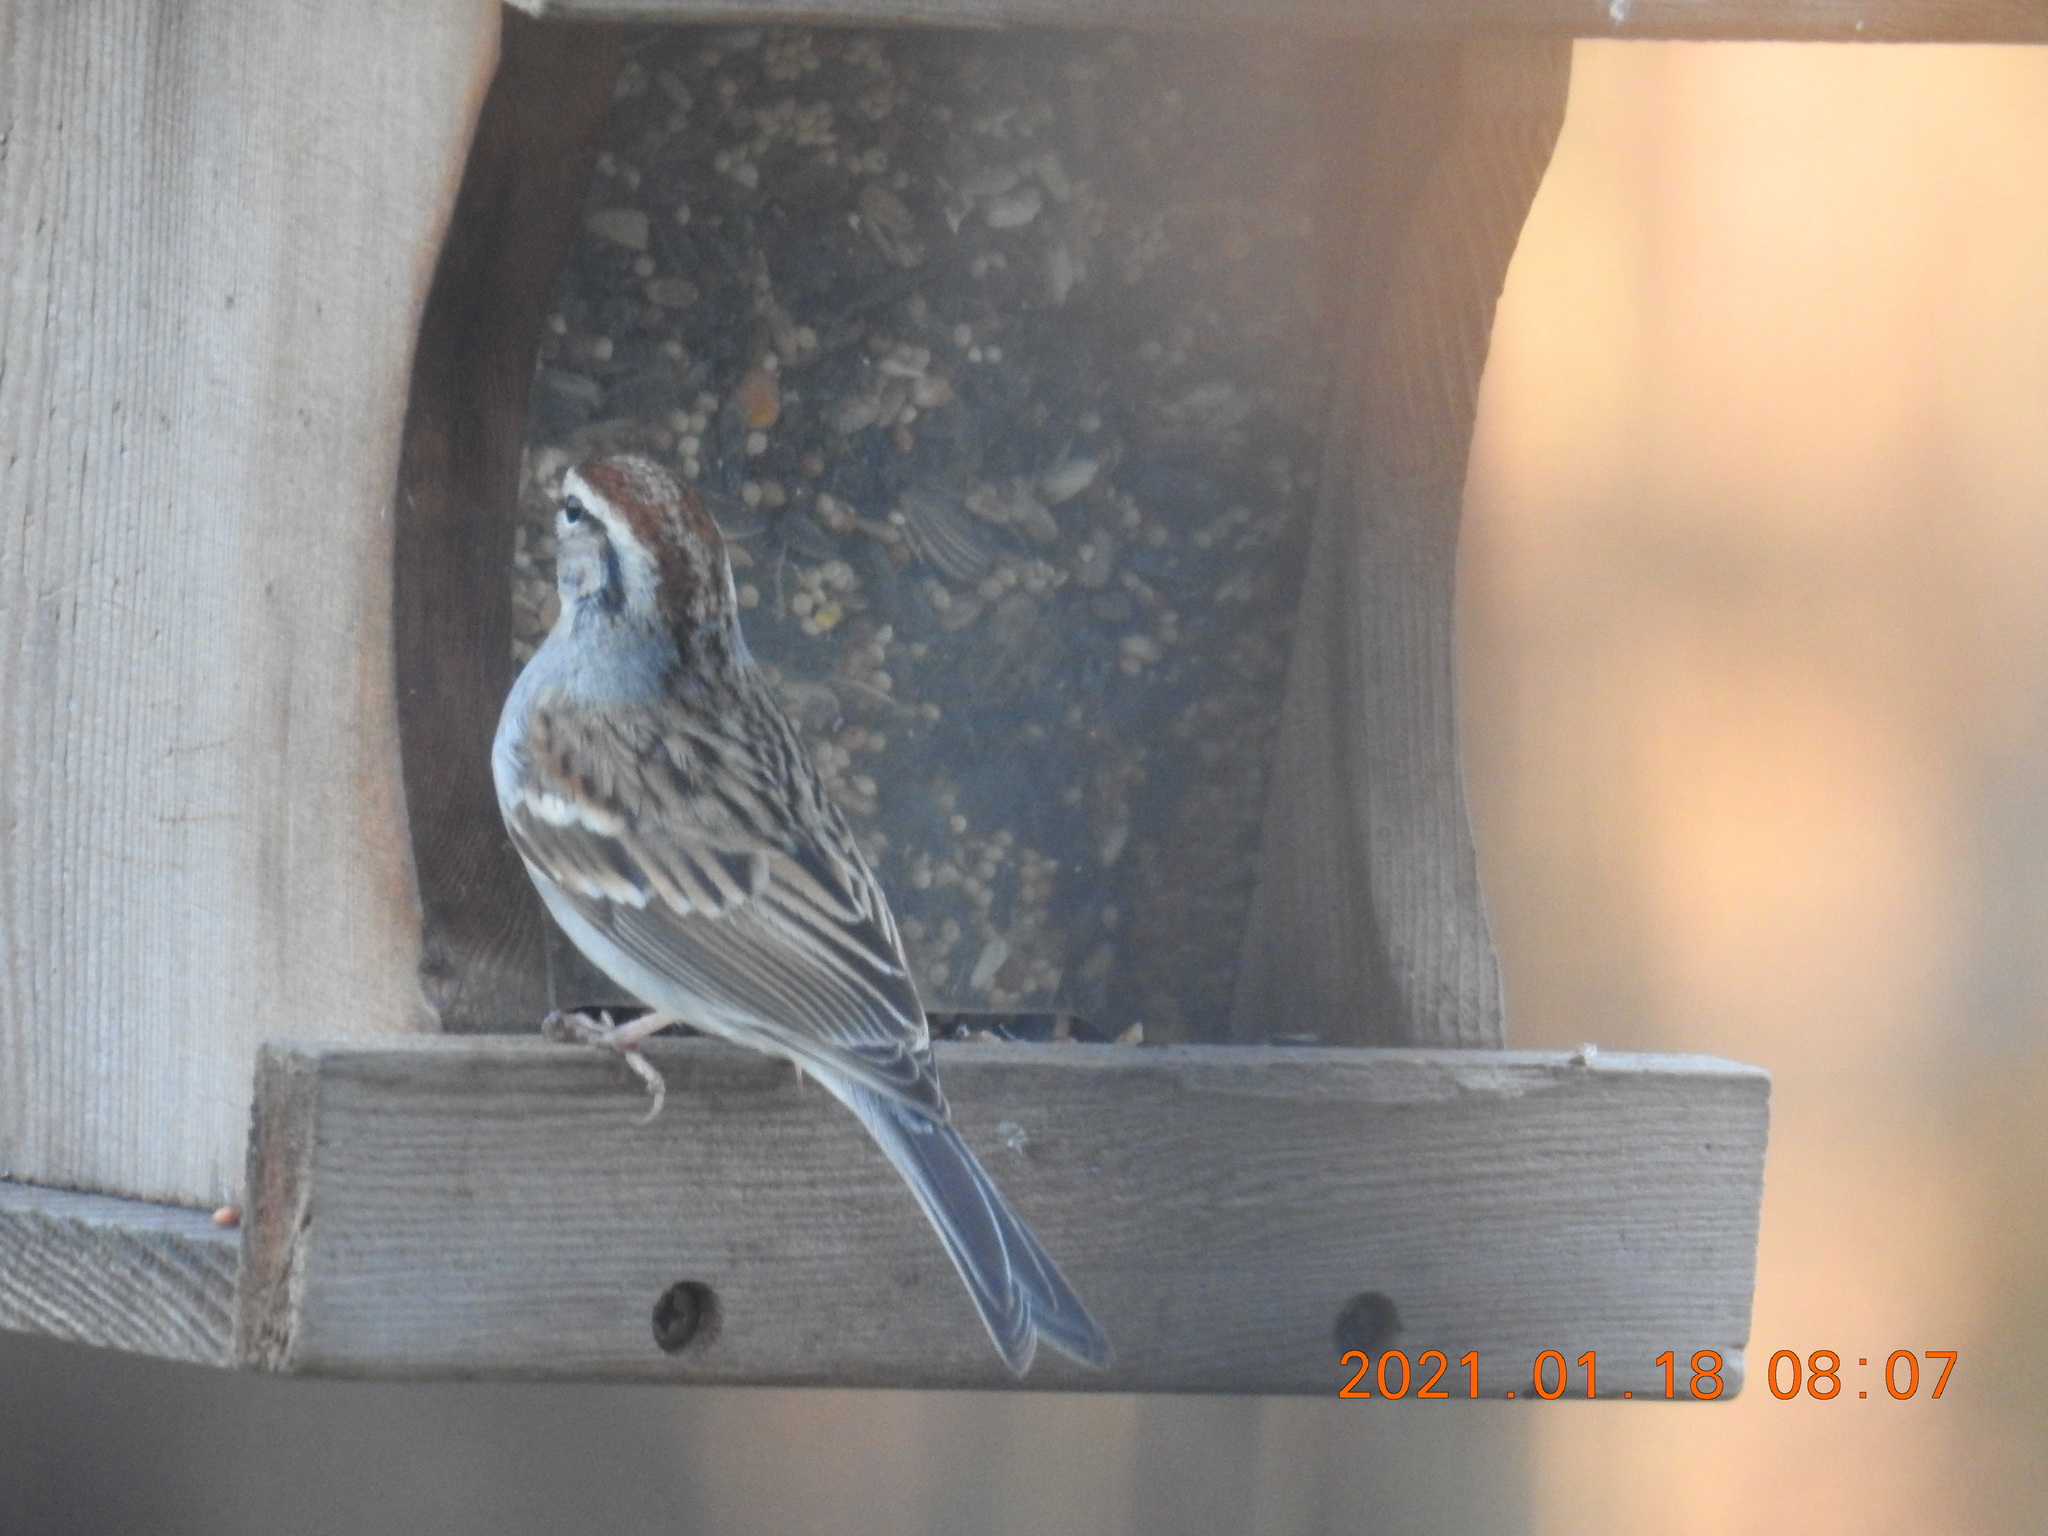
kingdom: Animalia
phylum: Chordata
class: Aves
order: Passeriformes
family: Passerellidae
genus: Spizella
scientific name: Spizella passerina
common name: Chipping sparrow
